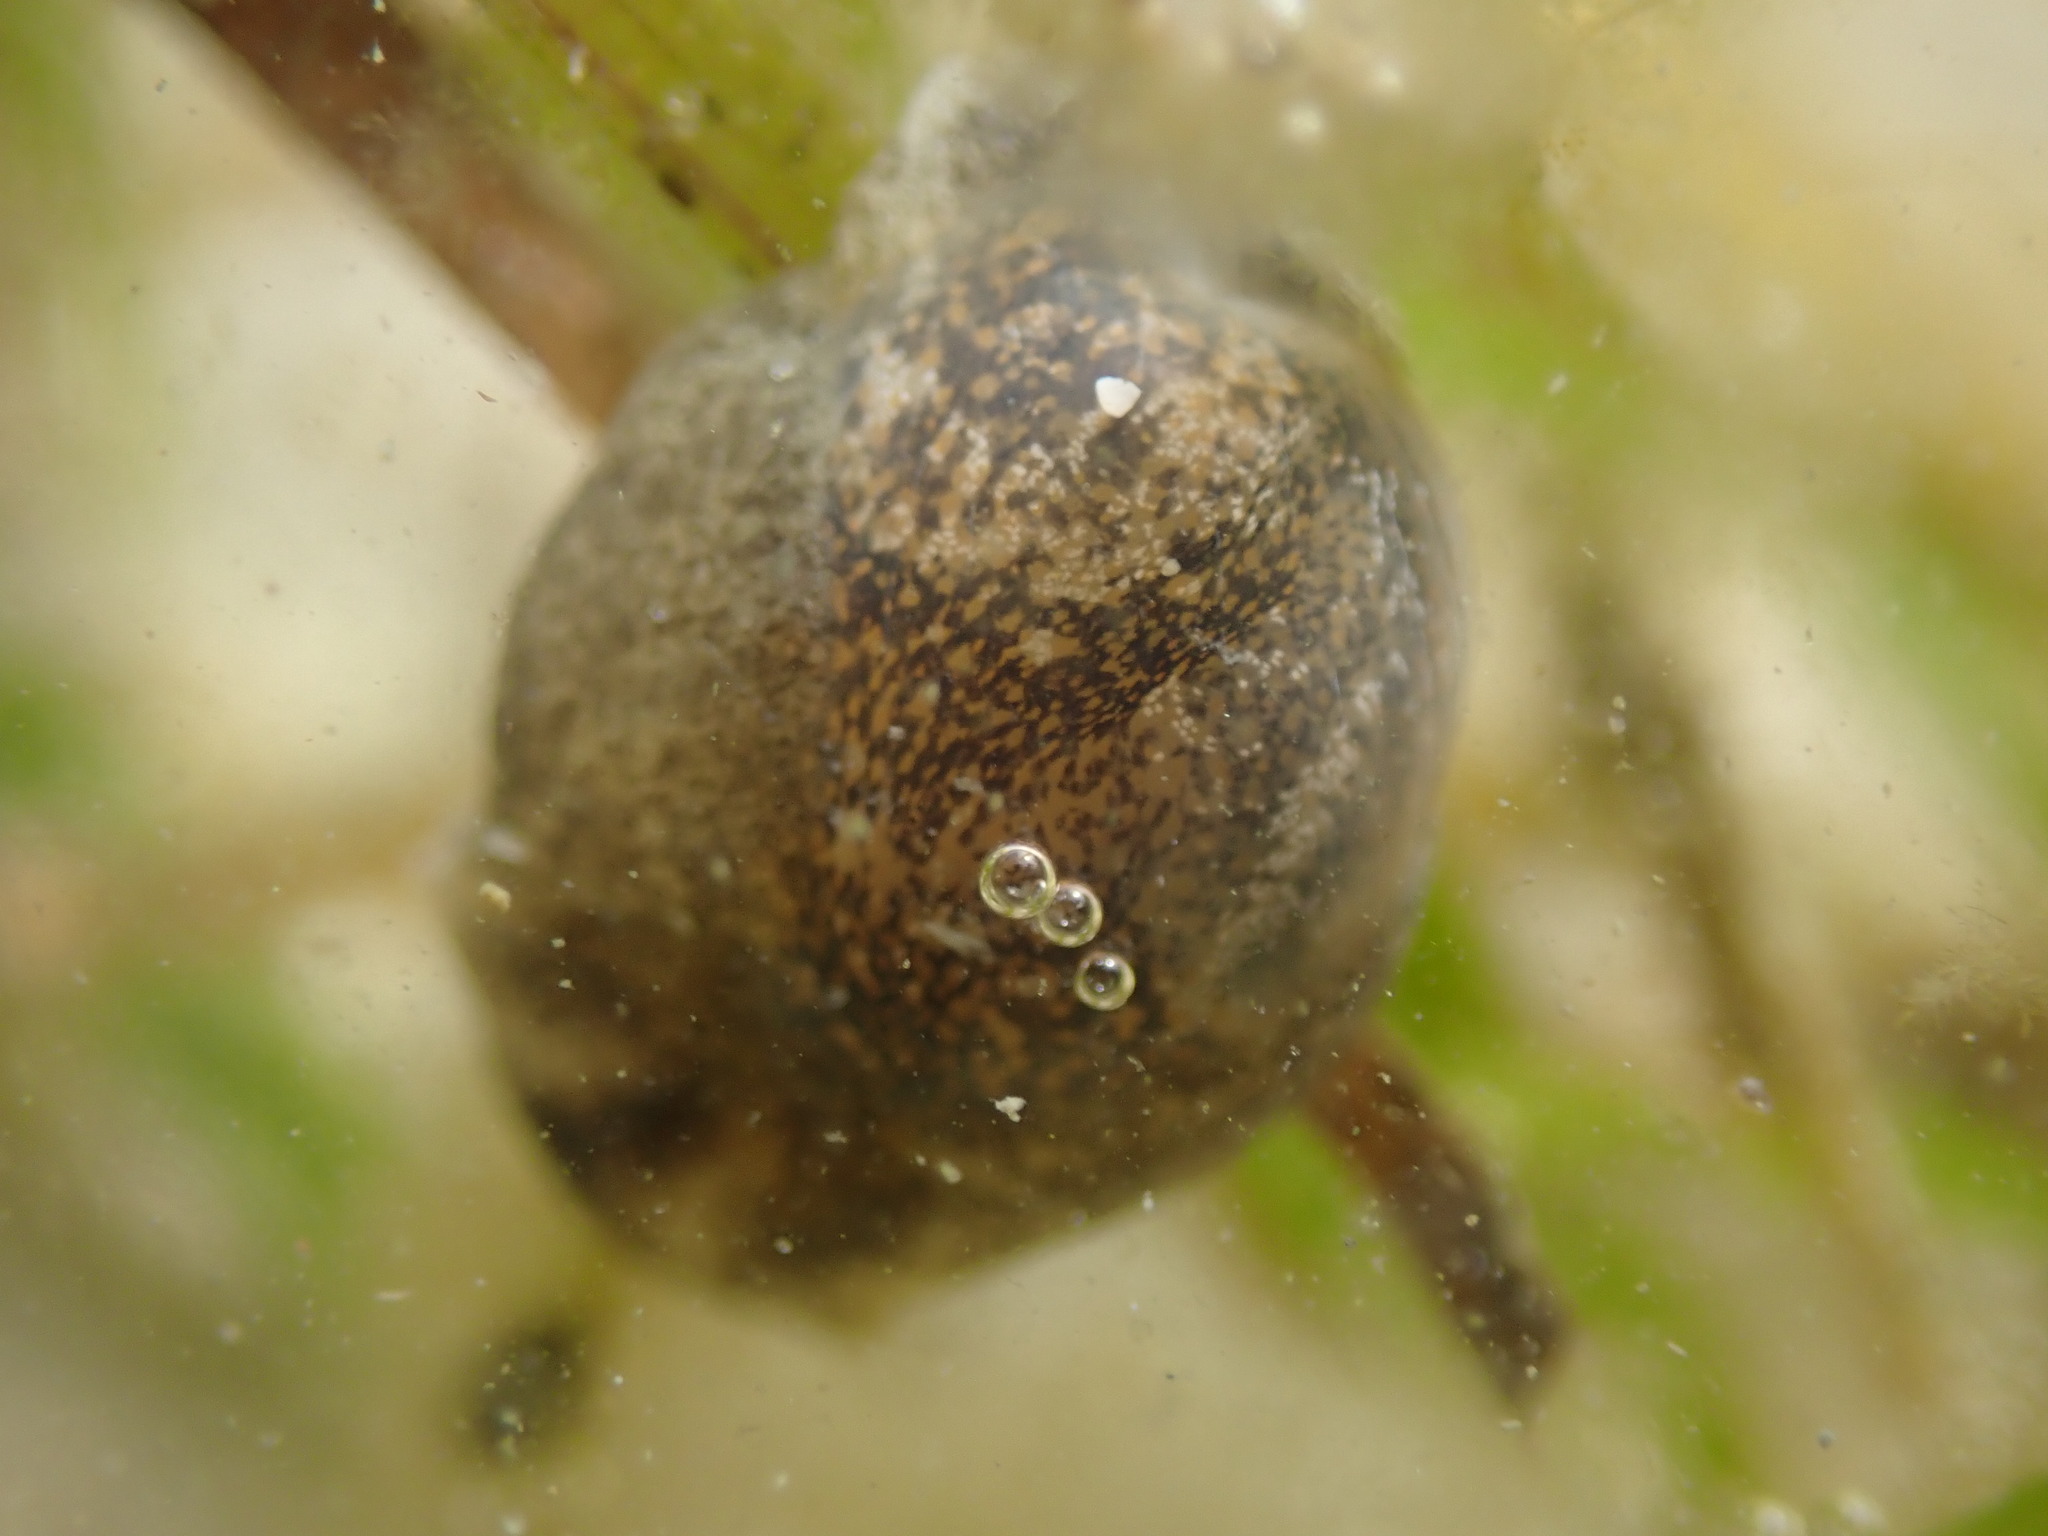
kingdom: Animalia
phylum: Mollusca
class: Gastropoda
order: Cephalaspidea
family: Haminoeidae
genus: Papawera
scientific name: Papawera zelandiae
